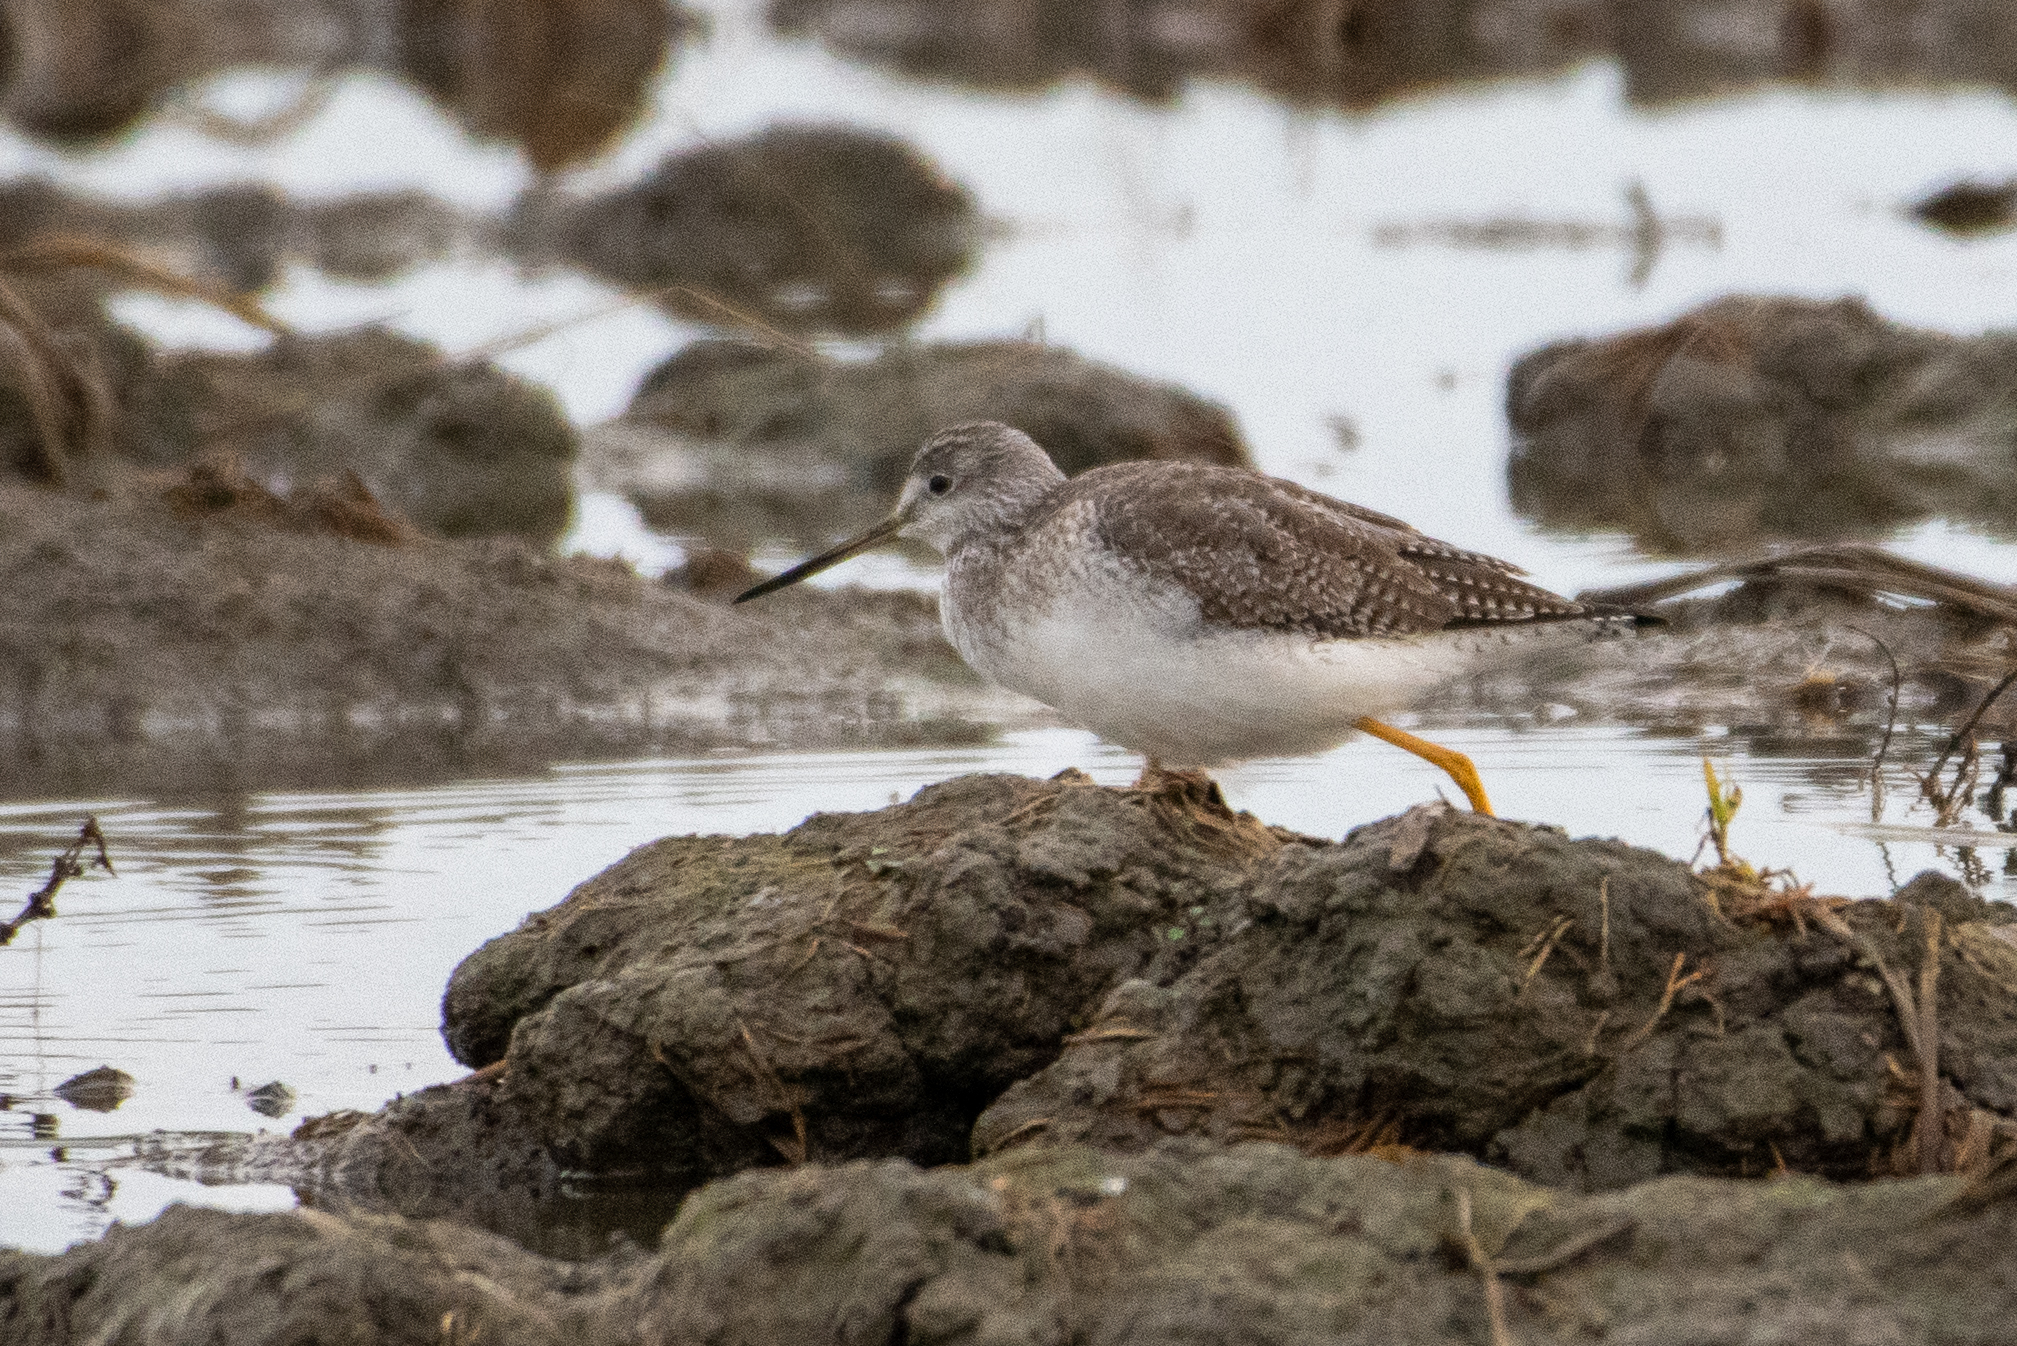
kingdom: Animalia
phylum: Chordata
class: Aves
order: Charadriiformes
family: Scolopacidae
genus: Tringa
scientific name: Tringa melanoleuca
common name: Greater yellowlegs
